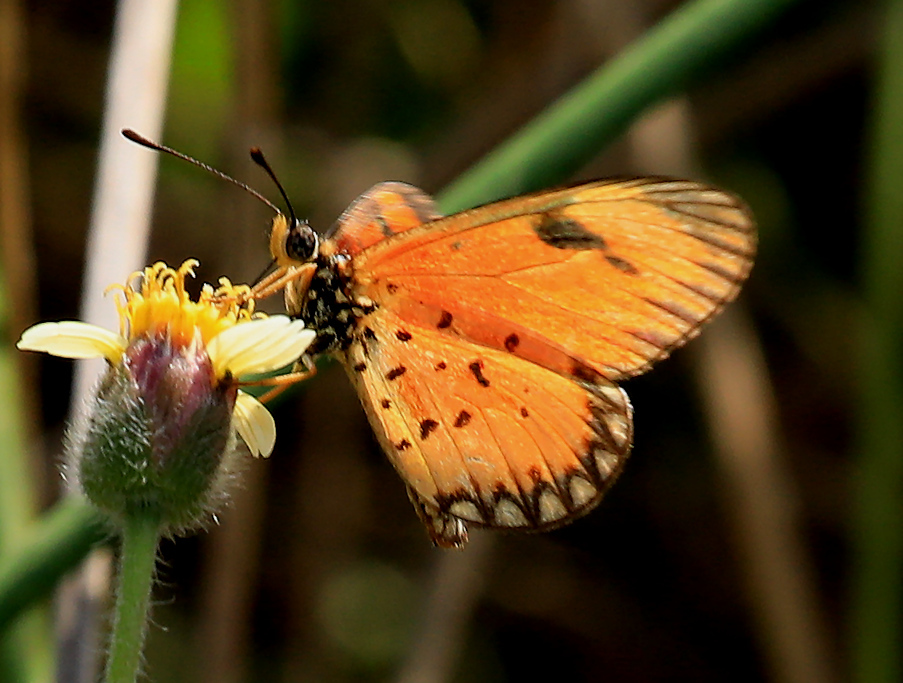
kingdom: Animalia
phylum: Arthropoda
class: Insecta
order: Lepidoptera
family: Nymphalidae
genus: Acraea
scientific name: Acraea Telchinia serena
